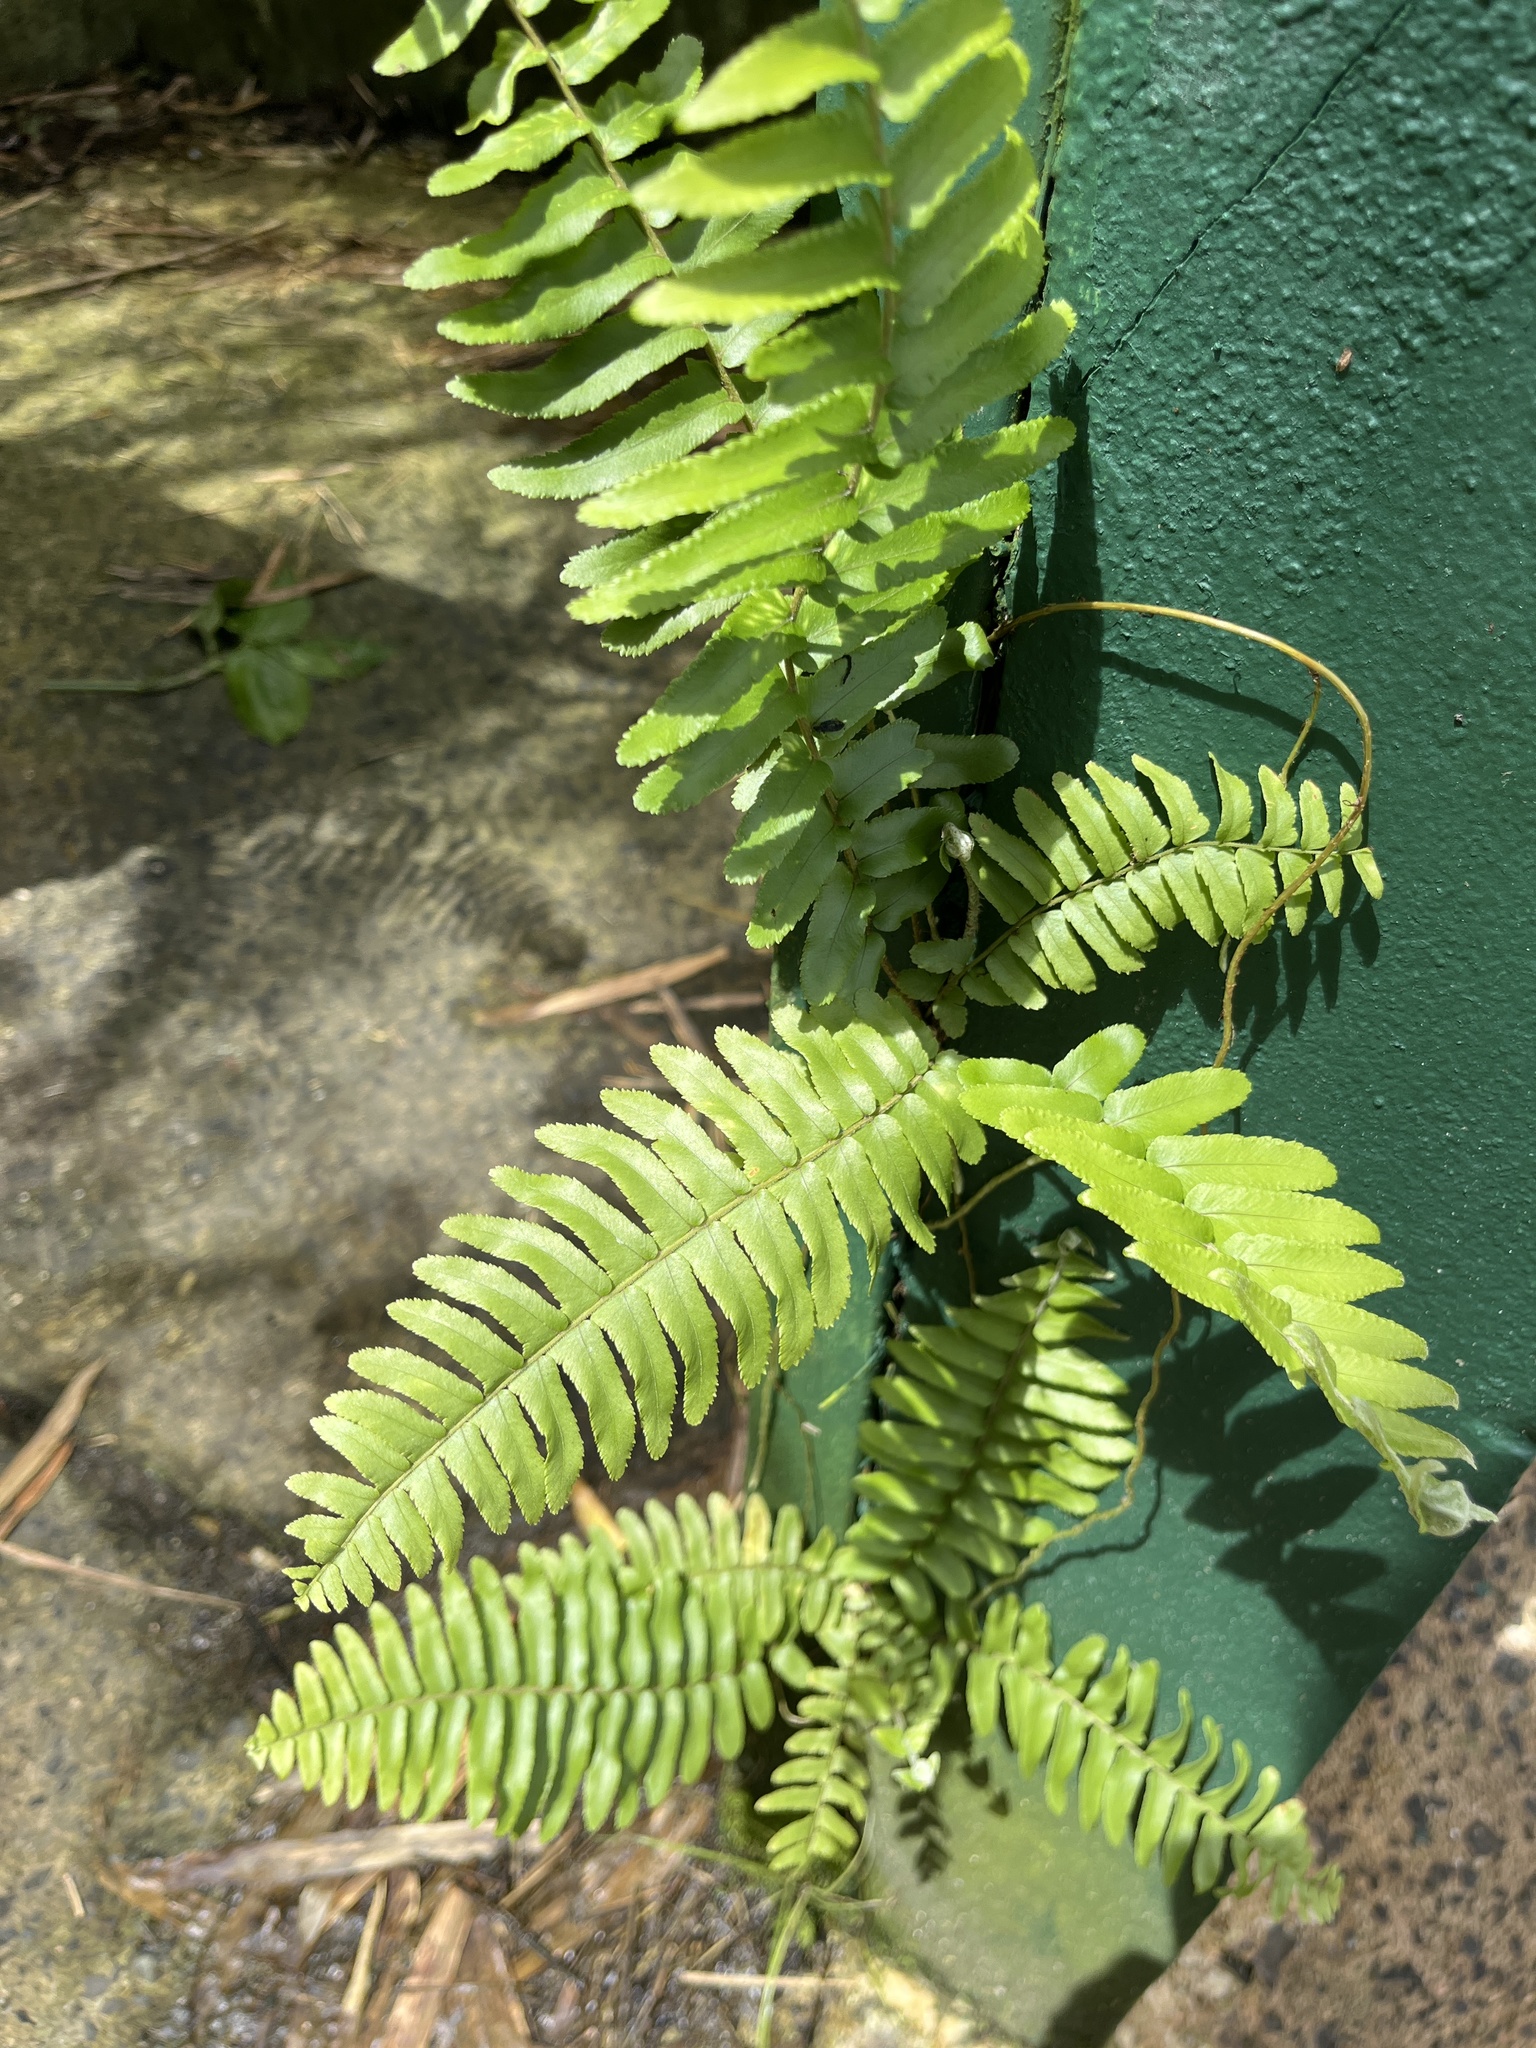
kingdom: Plantae
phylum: Tracheophyta
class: Polypodiopsida
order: Polypodiales
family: Nephrolepidaceae
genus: Nephrolepis
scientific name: Nephrolepis brownii
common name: Asian swordfern
